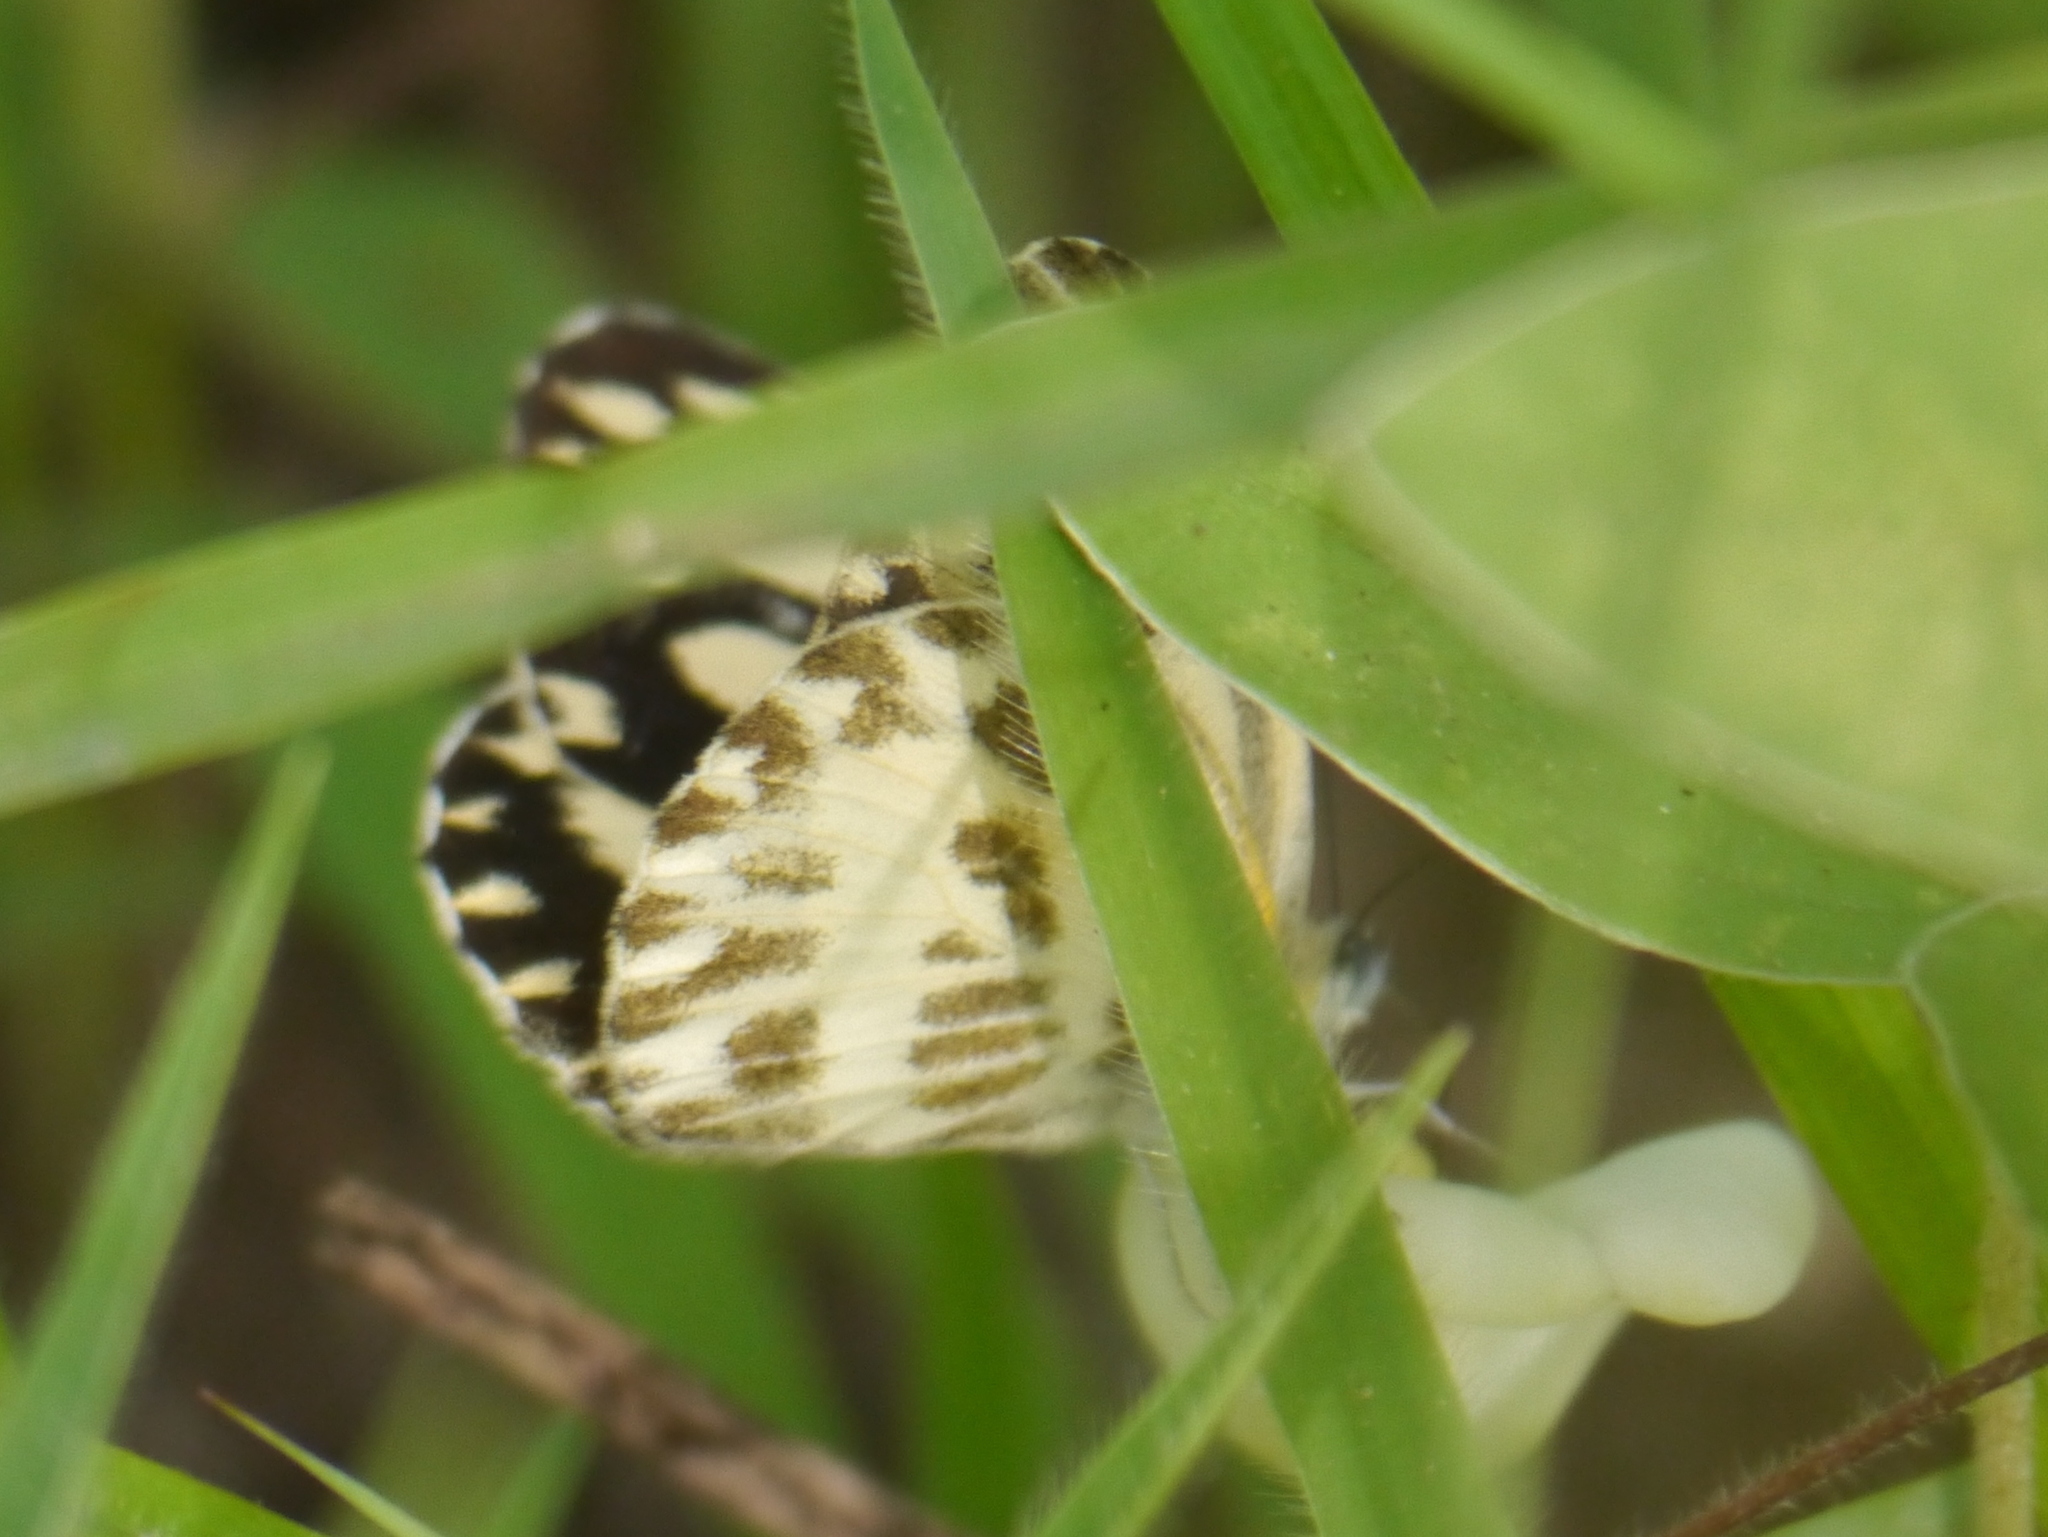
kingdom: Animalia
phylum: Arthropoda
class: Insecta
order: Lepidoptera
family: Pieridae
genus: Pinacopteryx
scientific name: Pinacopteryx eriphia
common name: Zebra white
